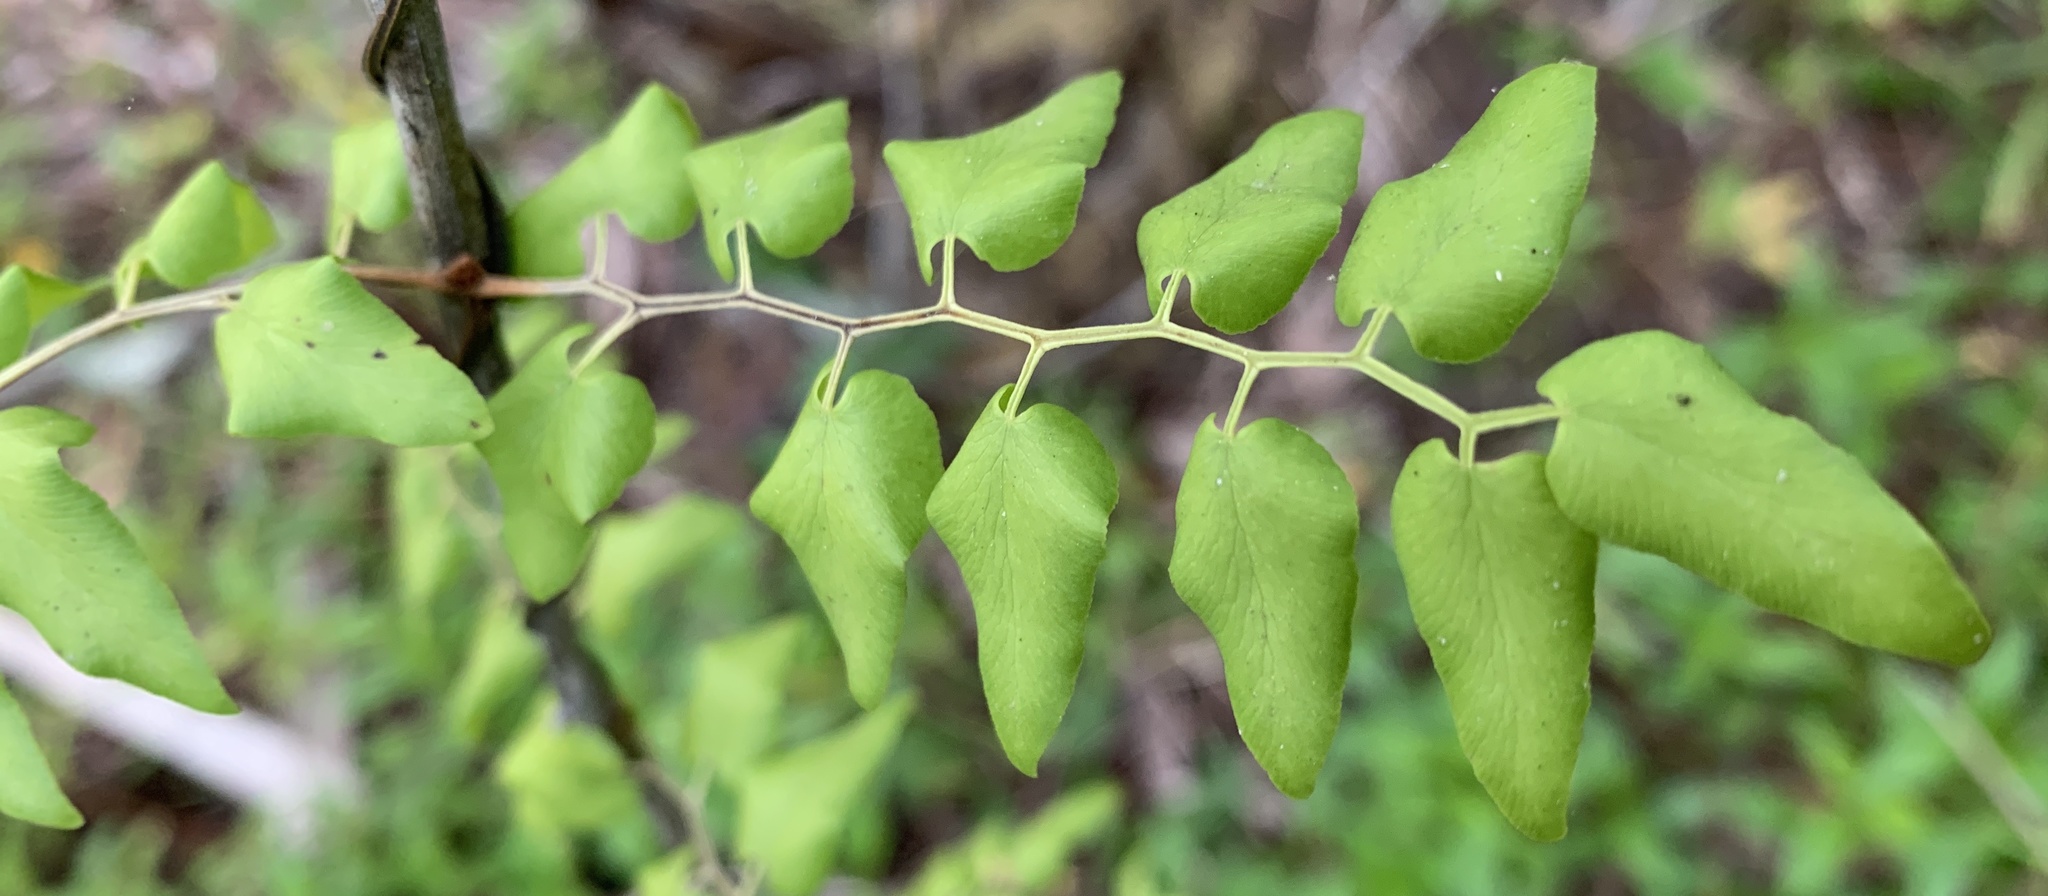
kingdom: Plantae
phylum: Tracheophyta
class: Polypodiopsida
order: Schizaeales
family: Lygodiaceae
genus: Lygodium
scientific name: Lygodium microphyllum
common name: Small-leaf climbing fern
